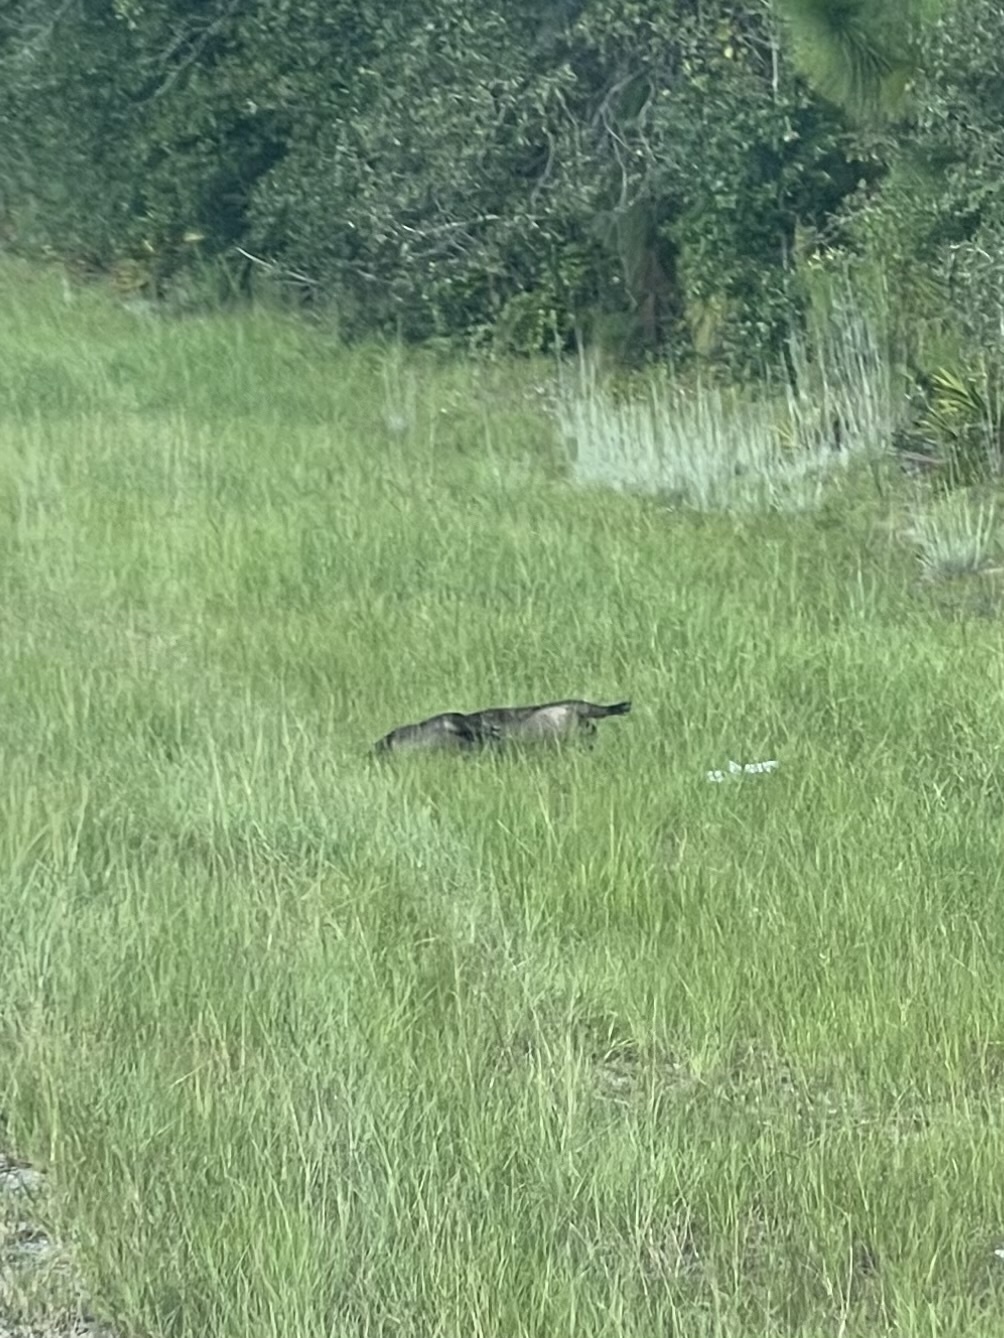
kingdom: Animalia
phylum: Chordata
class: Mammalia
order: Artiodactyla
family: Suidae
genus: Sus
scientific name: Sus scrofa
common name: Wild boar
